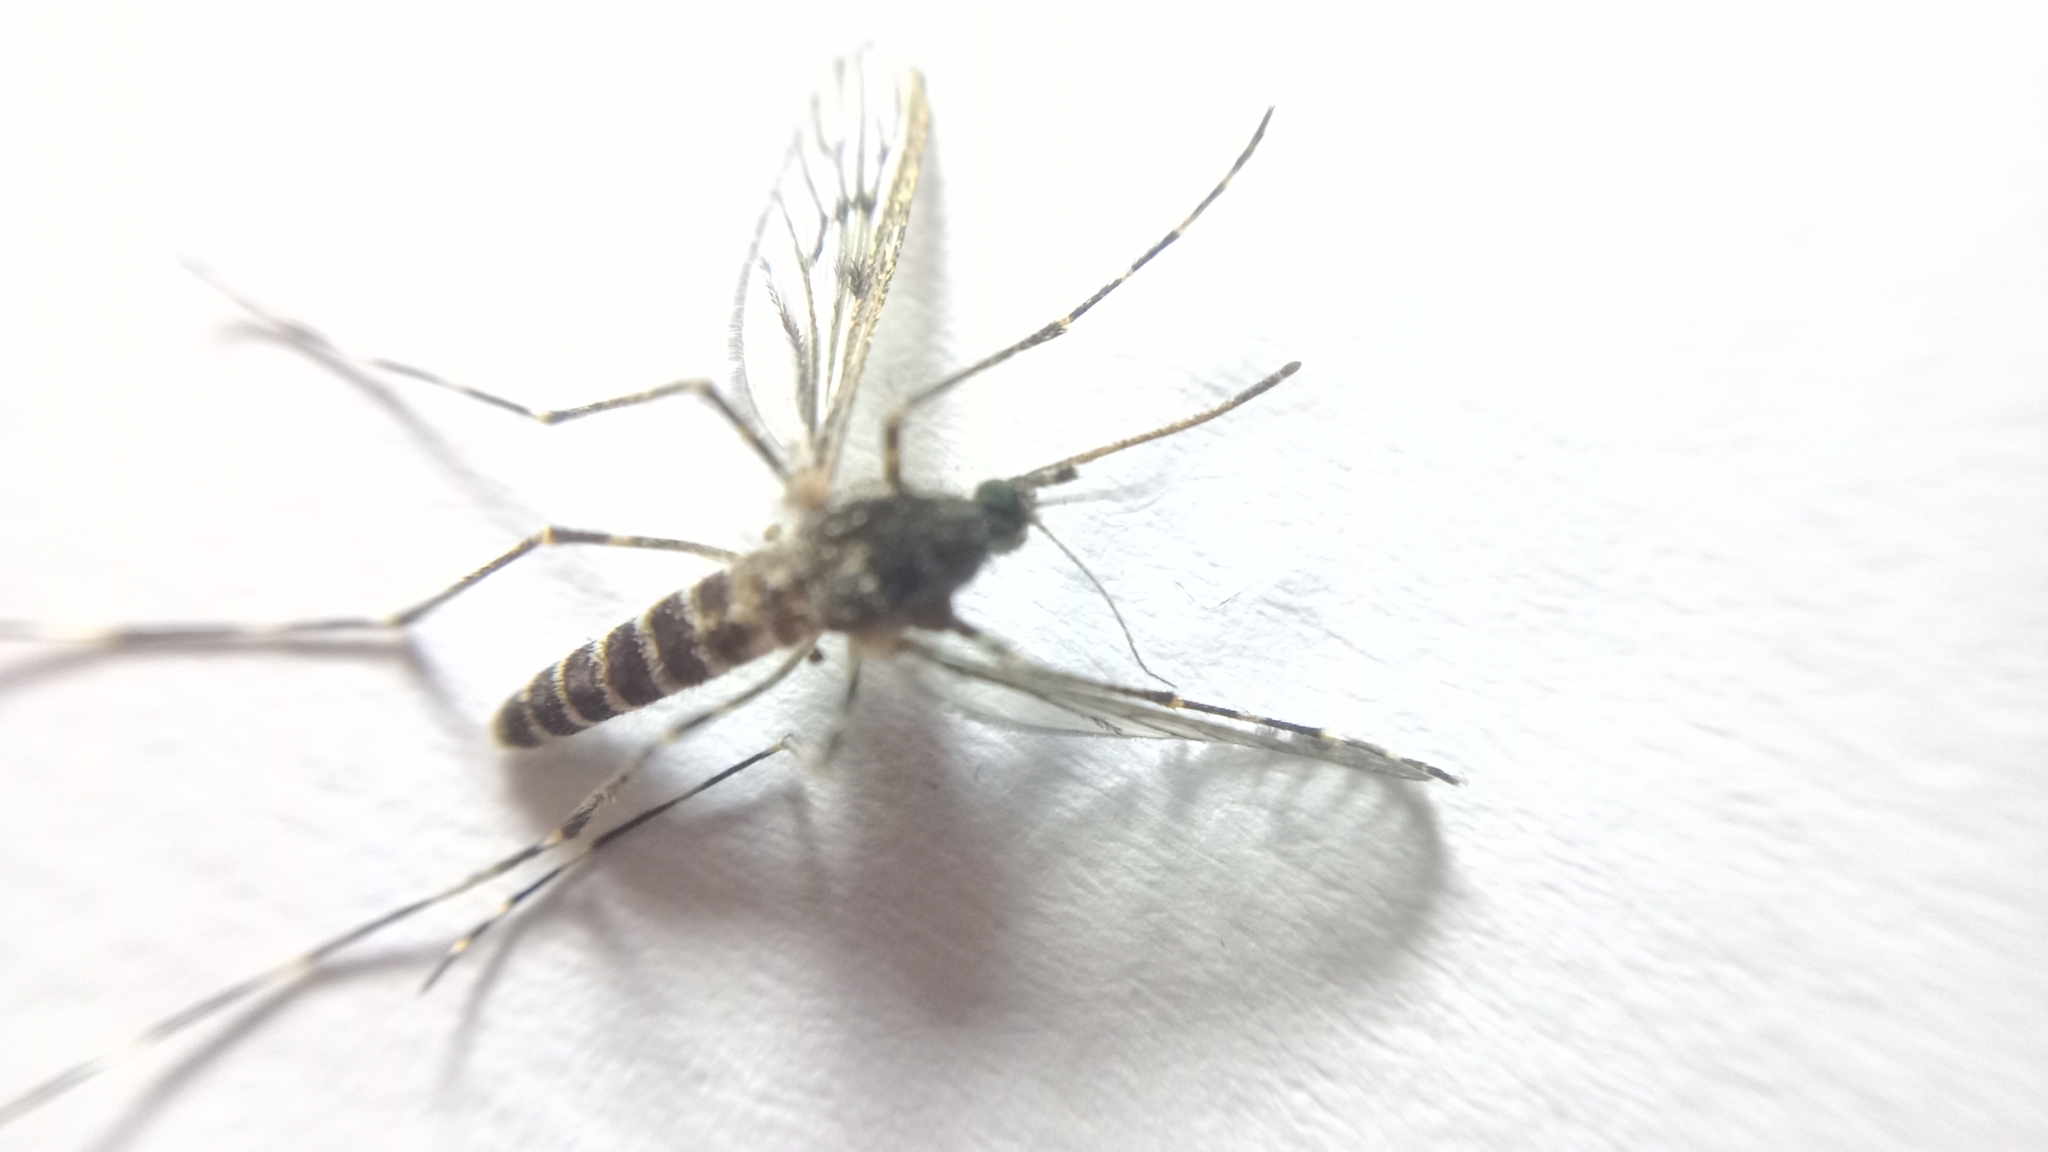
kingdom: Animalia
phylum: Arthropoda
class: Insecta
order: Diptera
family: Culicidae
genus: Culiseta
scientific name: Culiseta annulata
